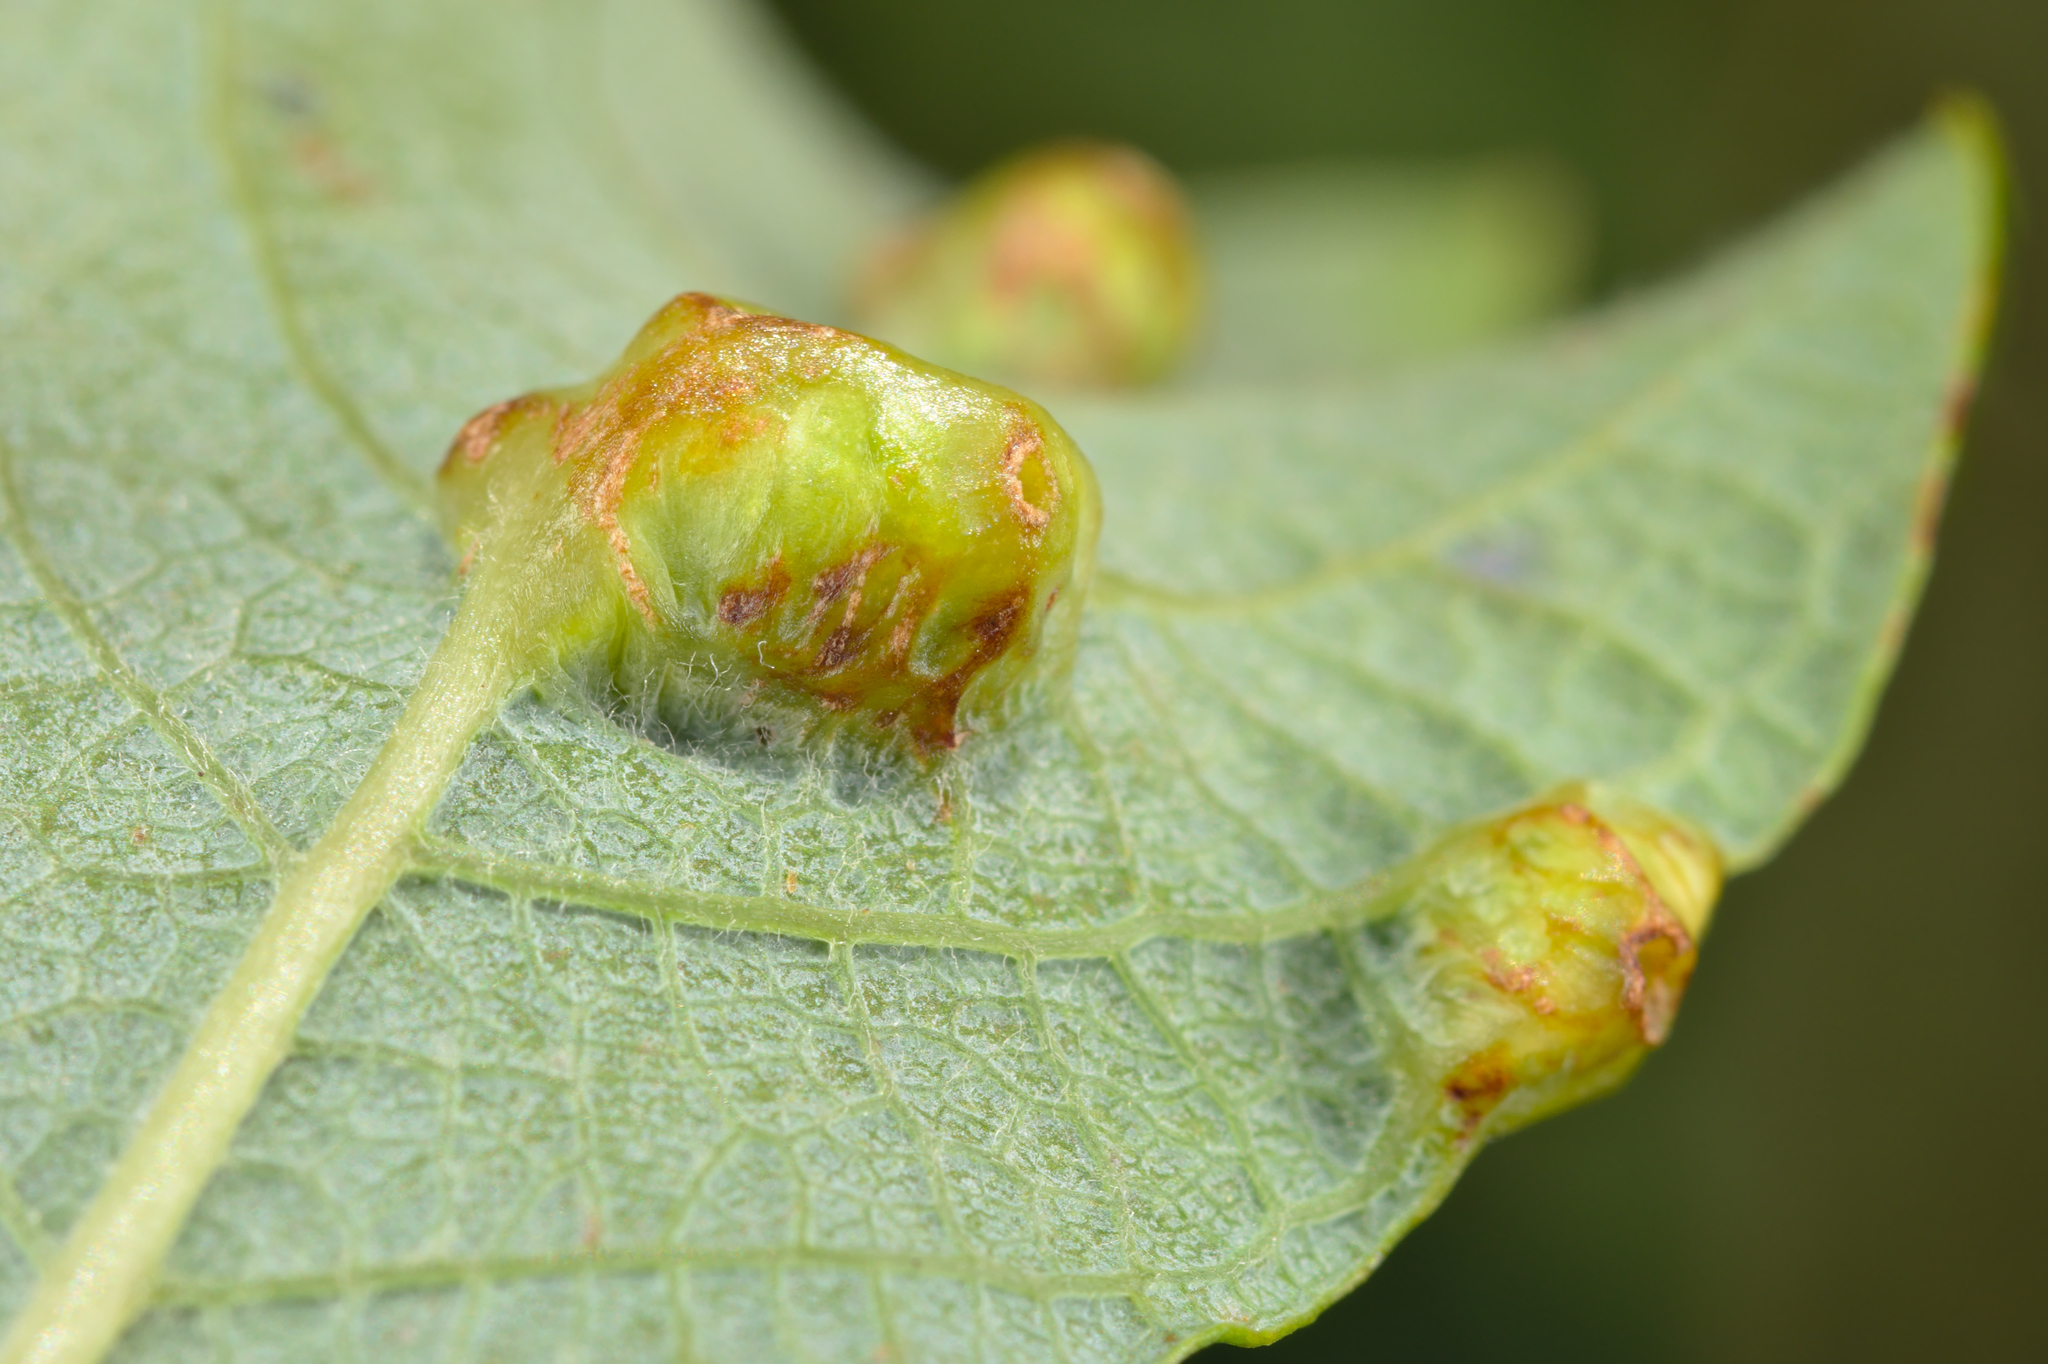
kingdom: Animalia
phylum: Arthropoda
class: Insecta
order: Diptera
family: Cecidomyiidae
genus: Iteomyia
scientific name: Iteomyia major
